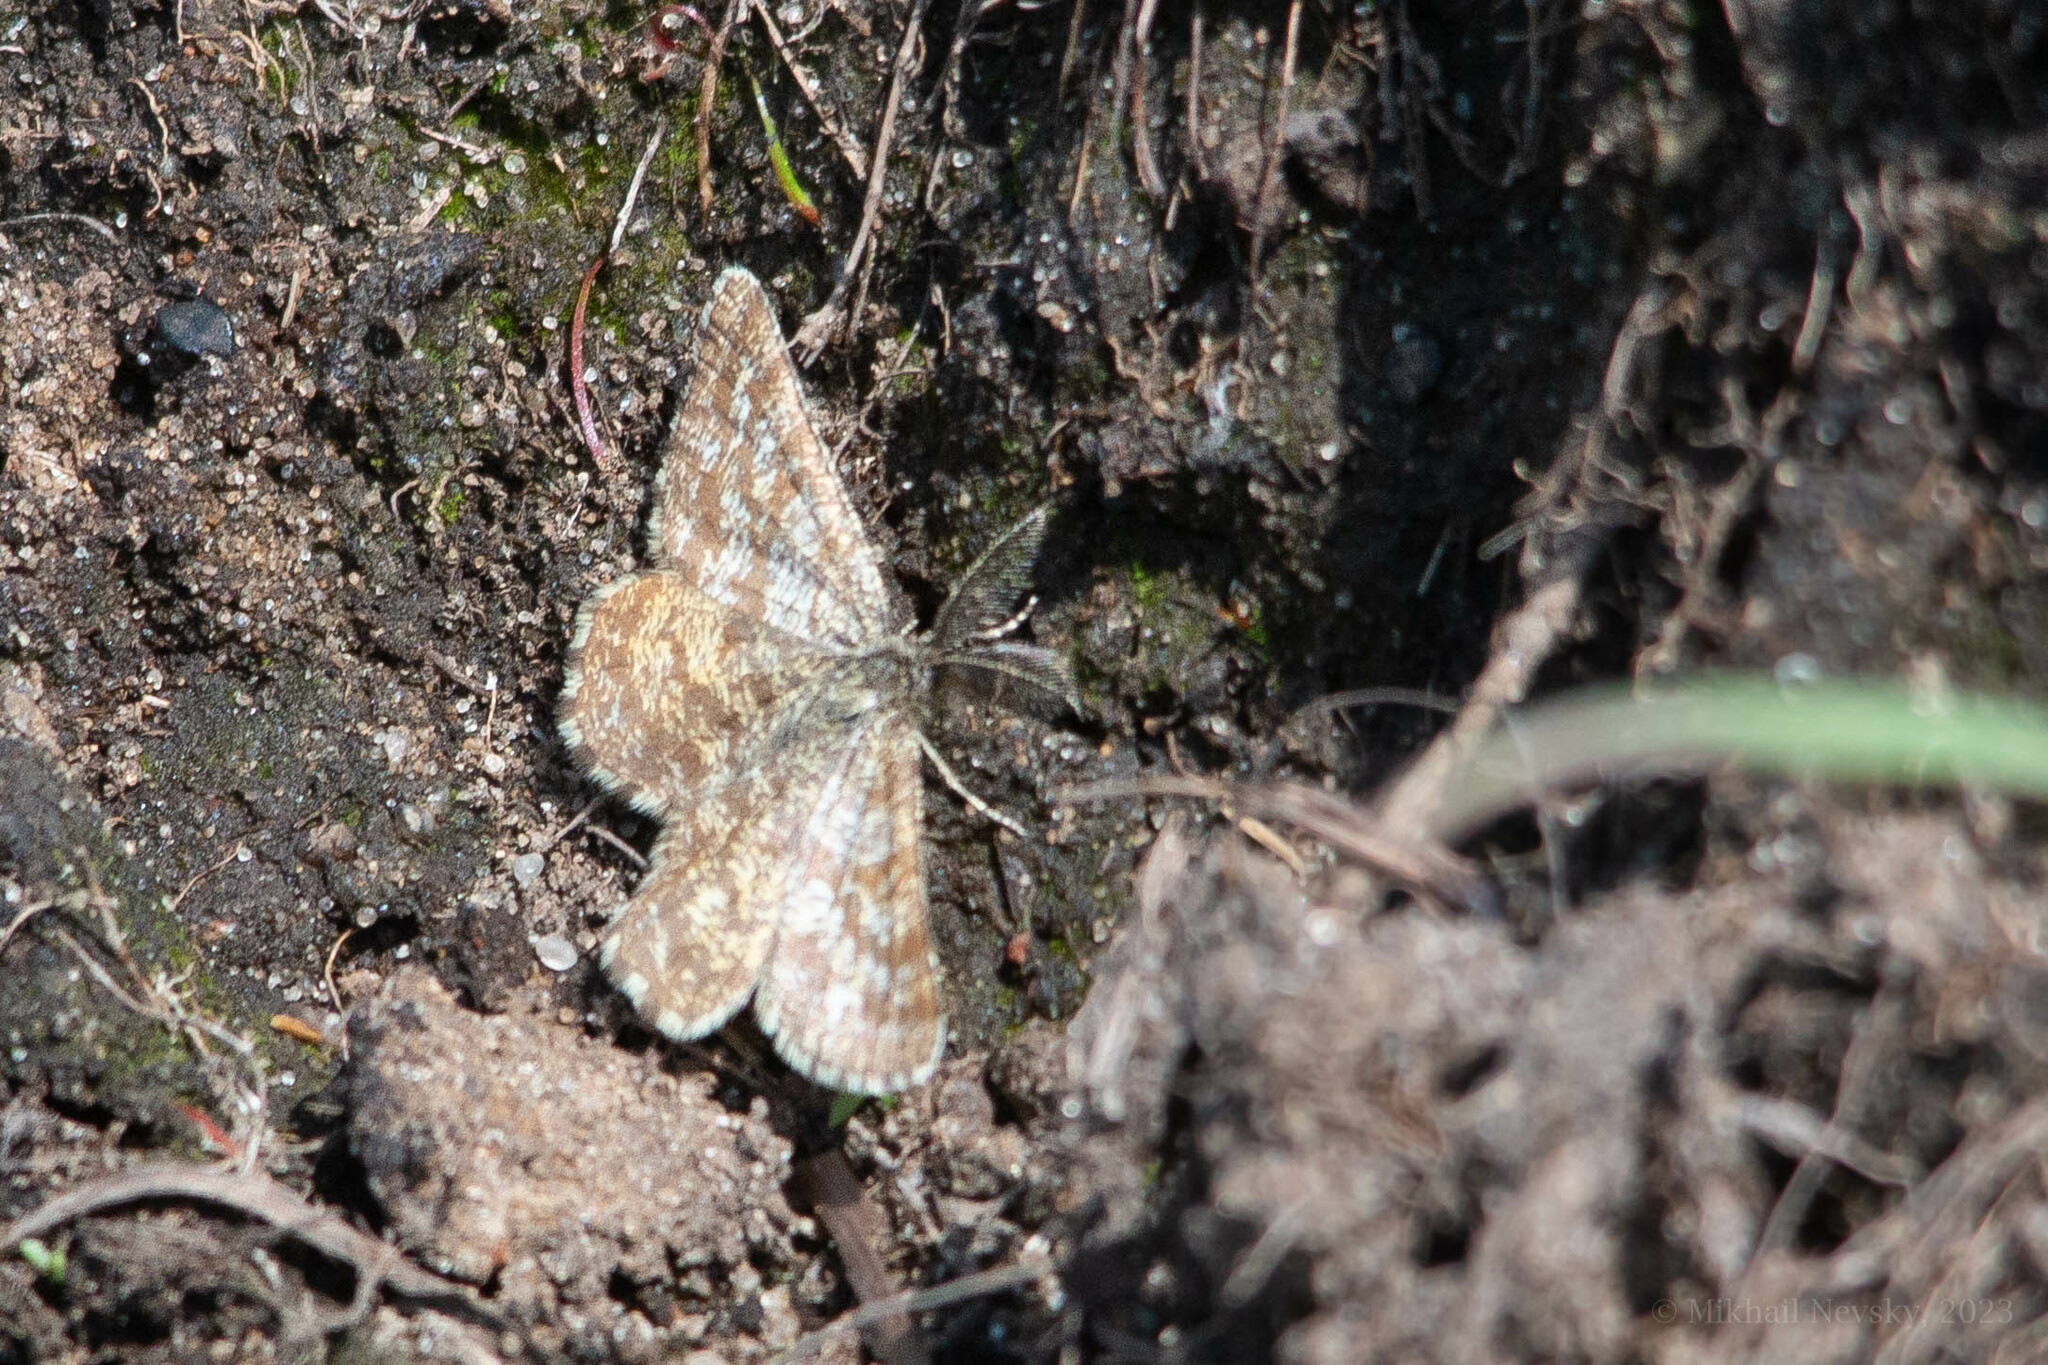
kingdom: Animalia
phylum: Arthropoda
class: Insecta
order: Lepidoptera
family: Geometridae
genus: Ematurga
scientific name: Ematurga atomaria
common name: Common heath
